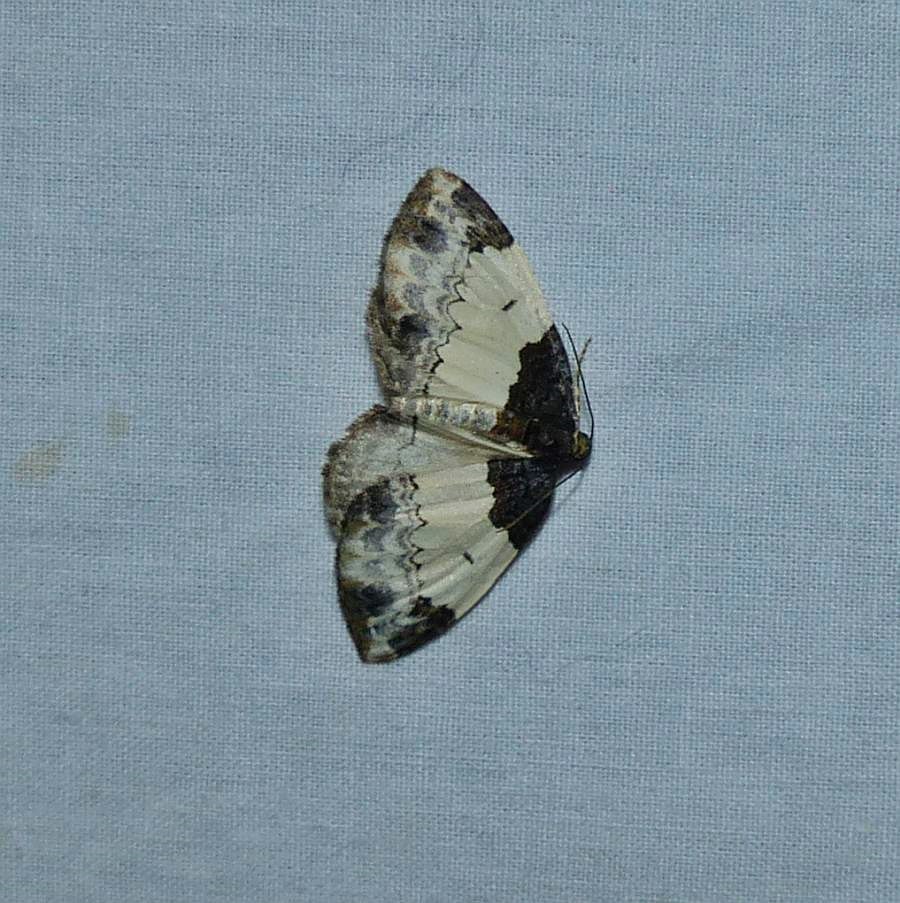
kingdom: Animalia
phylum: Arthropoda
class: Insecta
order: Lepidoptera
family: Geometridae
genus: Mesoleuca
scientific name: Mesoleuca ruficillata
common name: White-ribboned carpet moth
